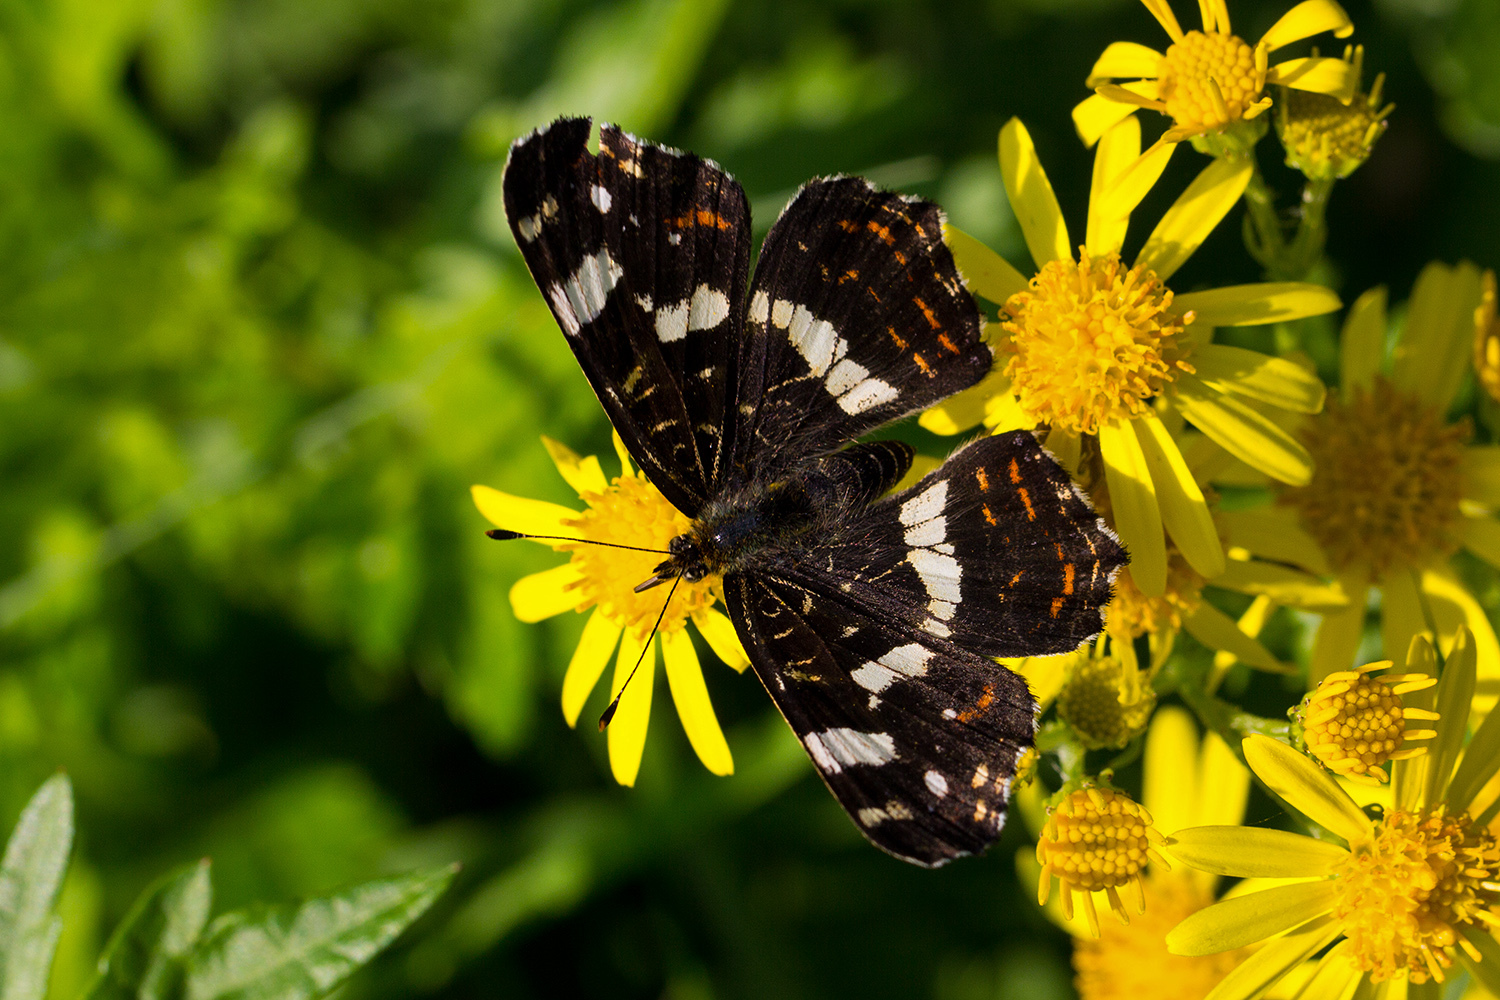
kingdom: Animalia
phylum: Arthropoda
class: Insecta
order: Lepidoptera
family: Nymphalidae
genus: Araschnia
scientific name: Araschnia levana
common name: Map butterfly
